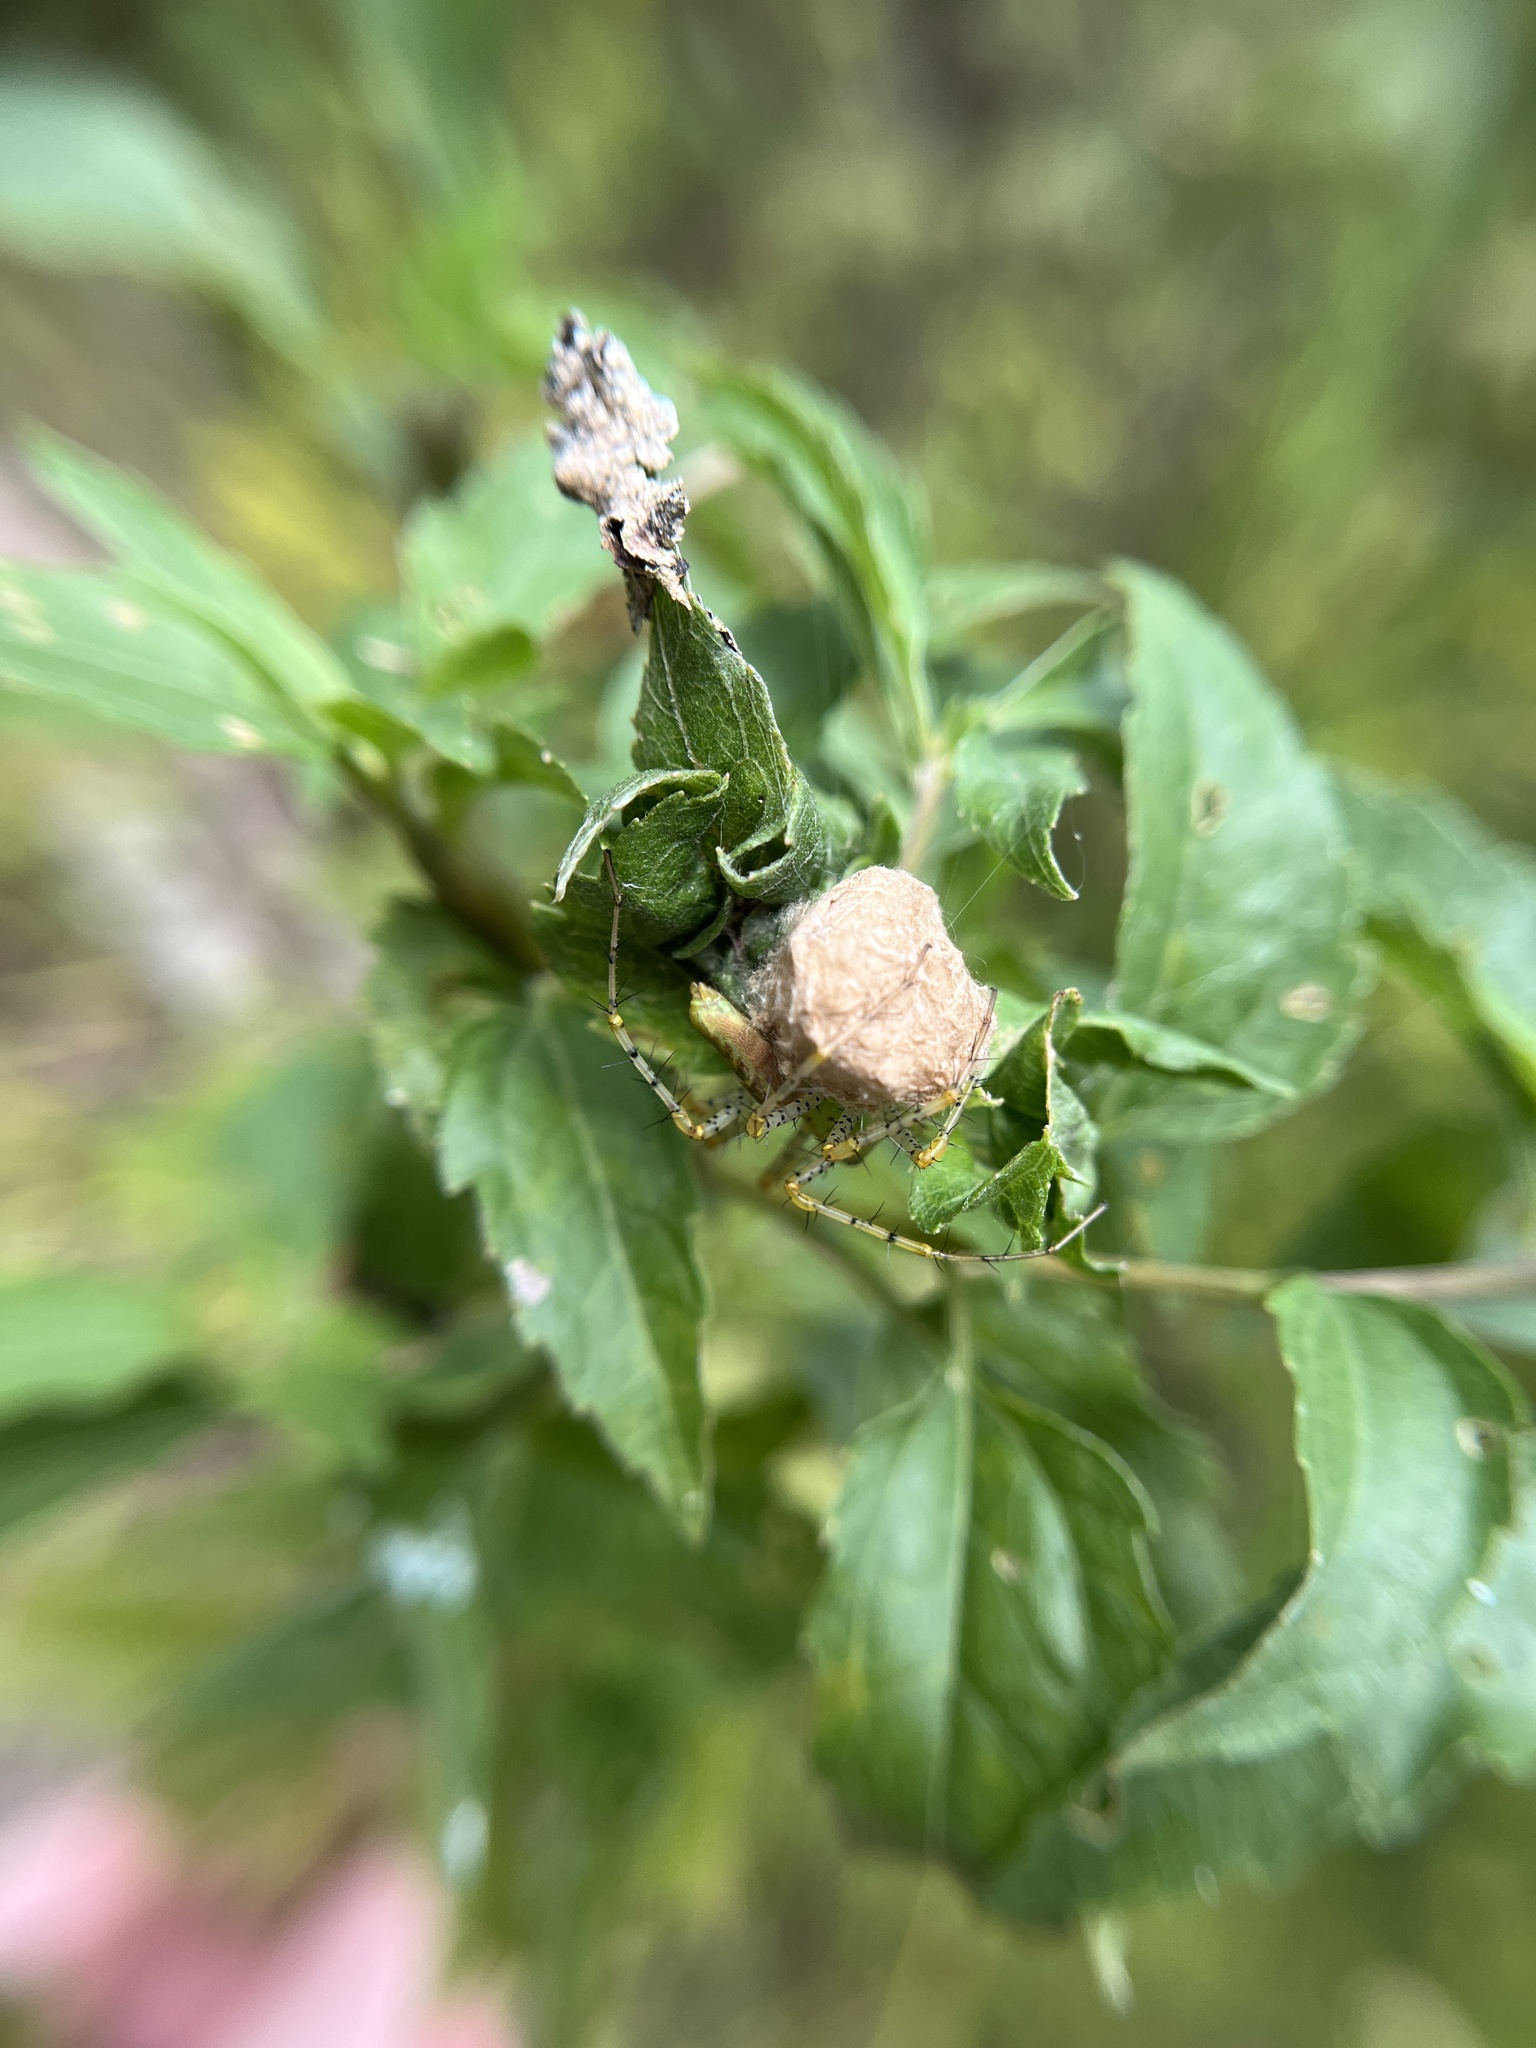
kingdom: Animalia
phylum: Arthropoda
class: Arachnida
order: Araneae
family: Oxyopidae
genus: Peucetia
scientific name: Peucetia viridans
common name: Lynx spiders
